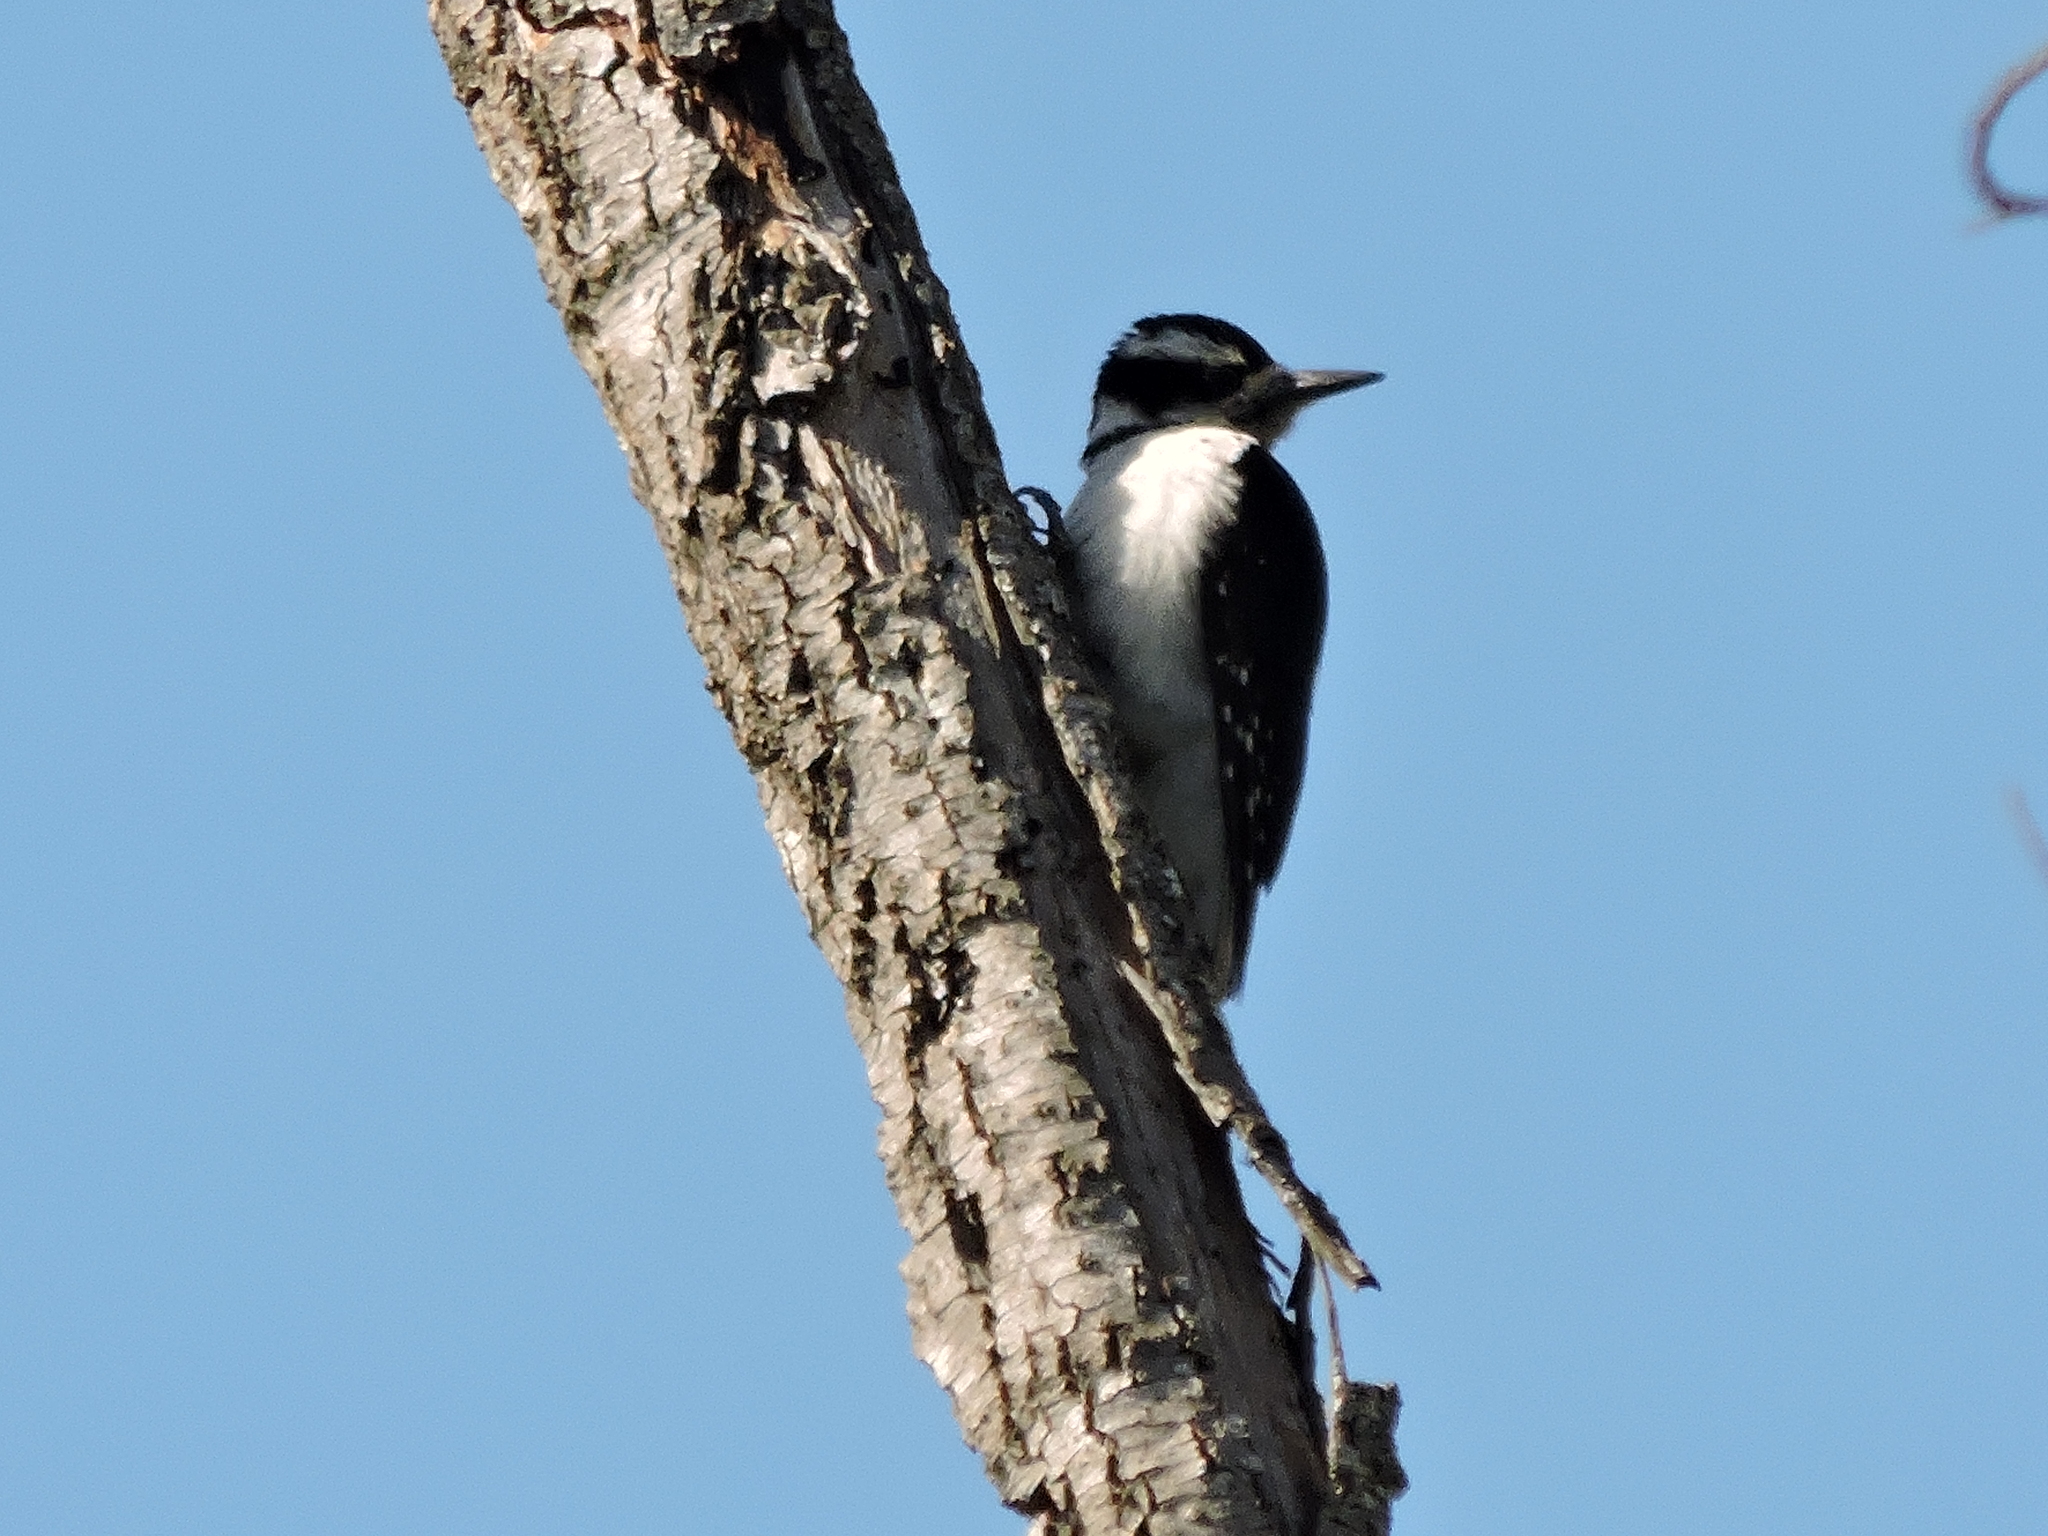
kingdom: Animalia
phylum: Chordata
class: Aves
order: Piciformes
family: Picidae
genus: Leuconotopicus
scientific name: Leuconotopicus villosus
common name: Hairy woodpecker
